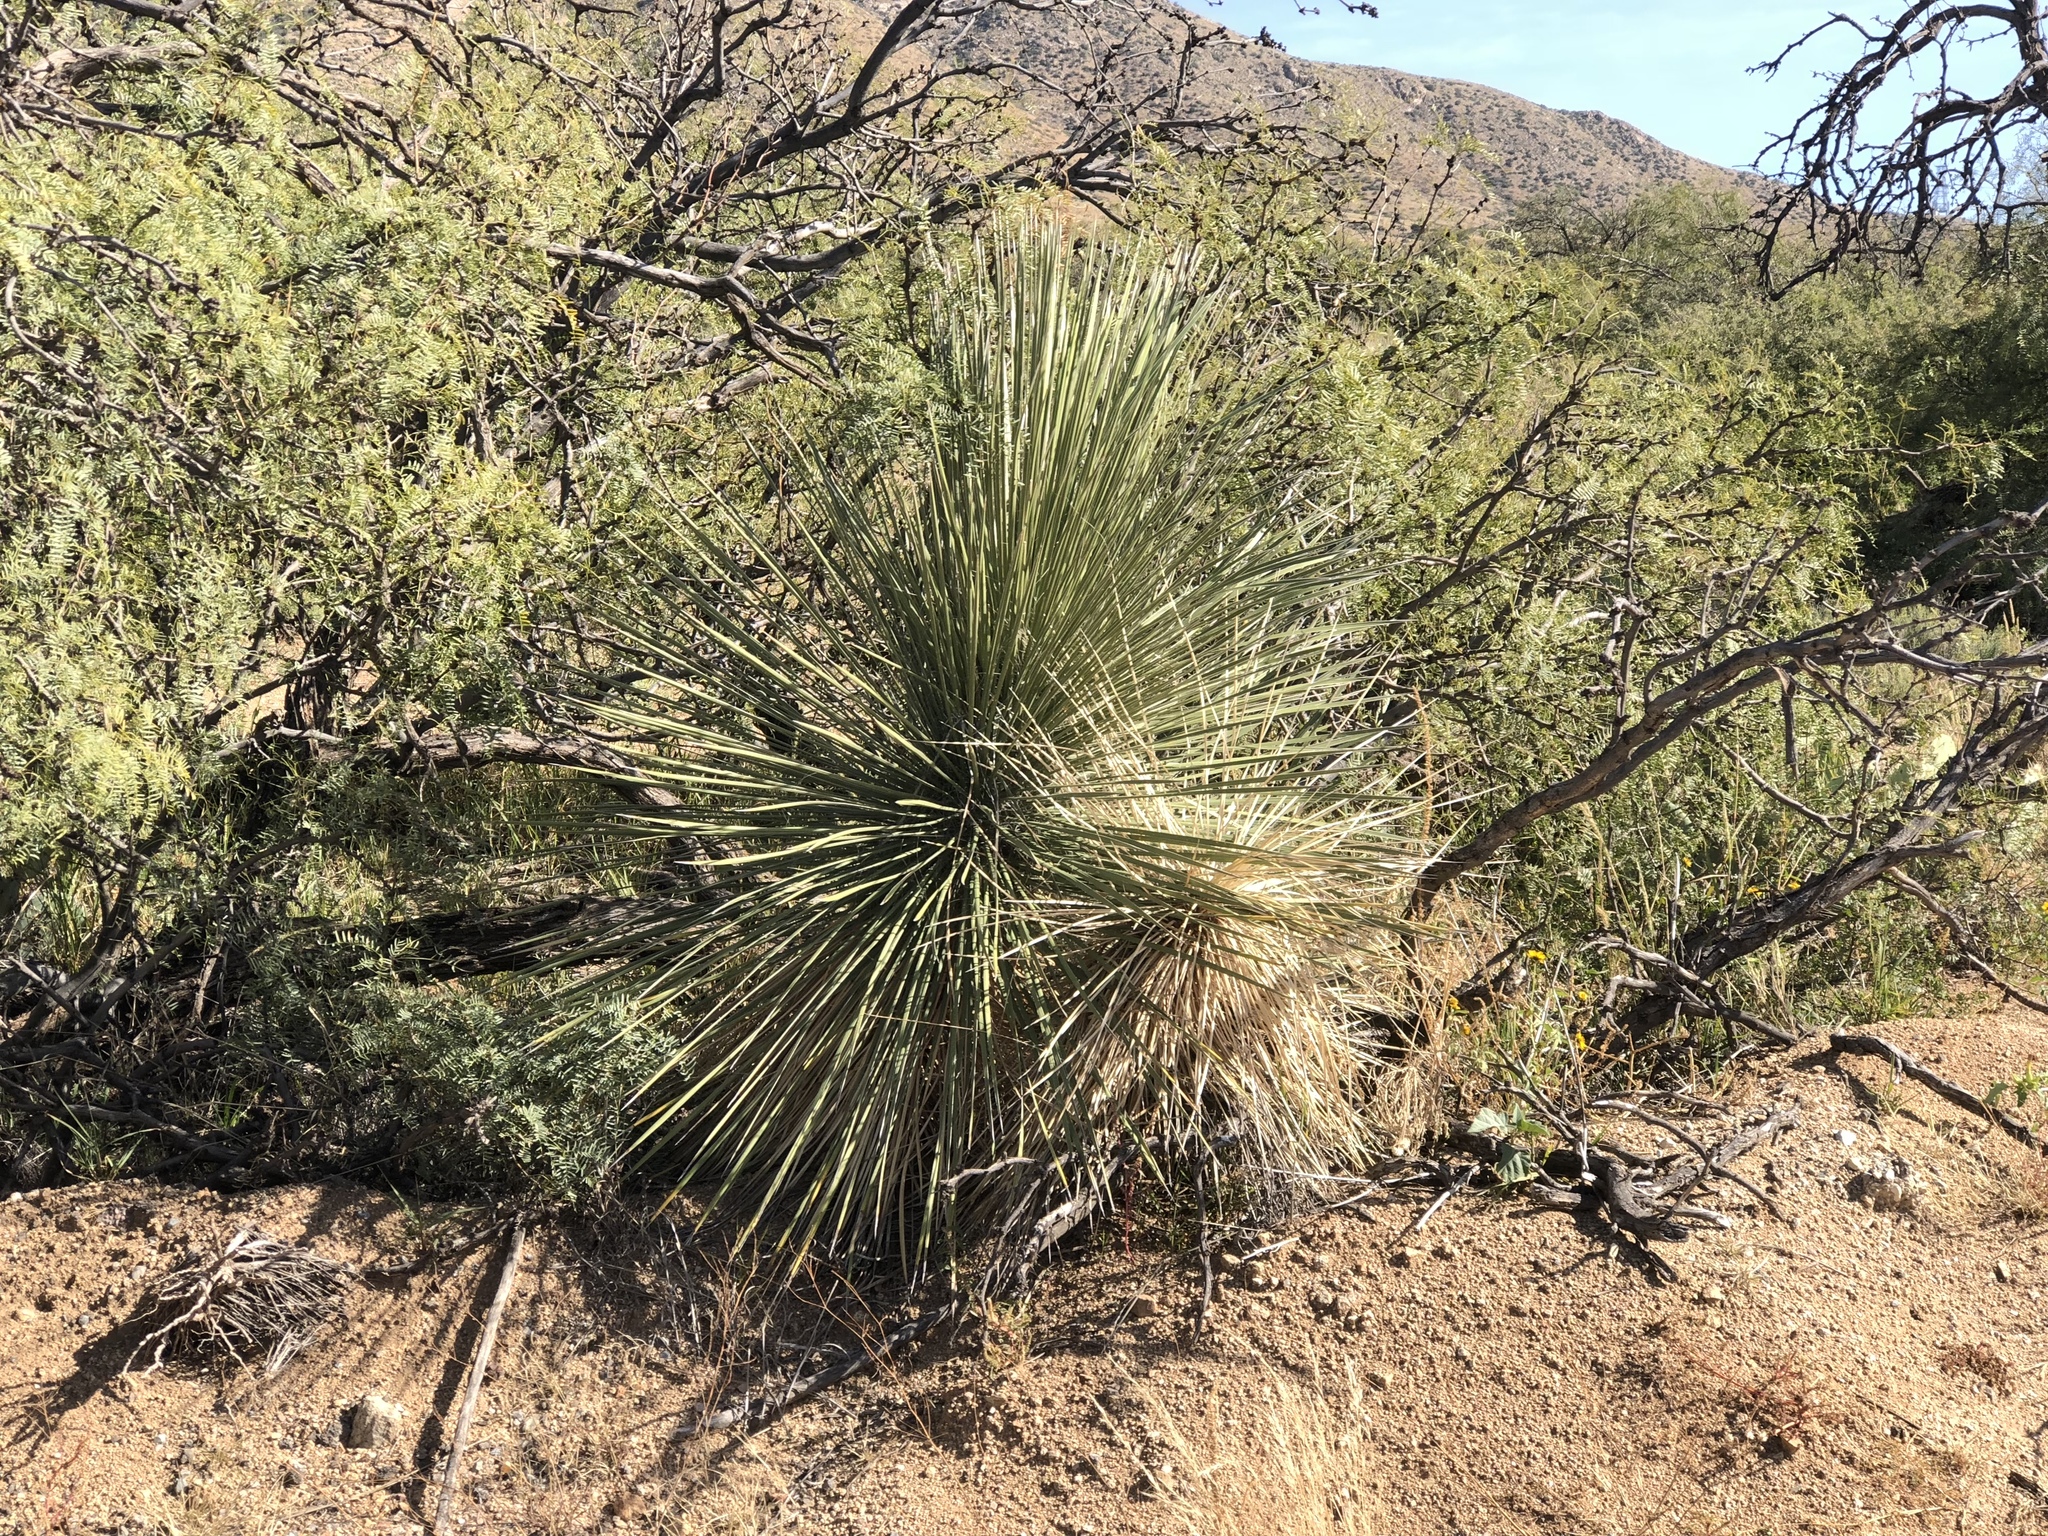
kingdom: Plantae
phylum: Tracheophyta
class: Liliopsida
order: Asparagales
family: Asparagaceae
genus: Yucca
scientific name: Yucca elata
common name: Palmella
